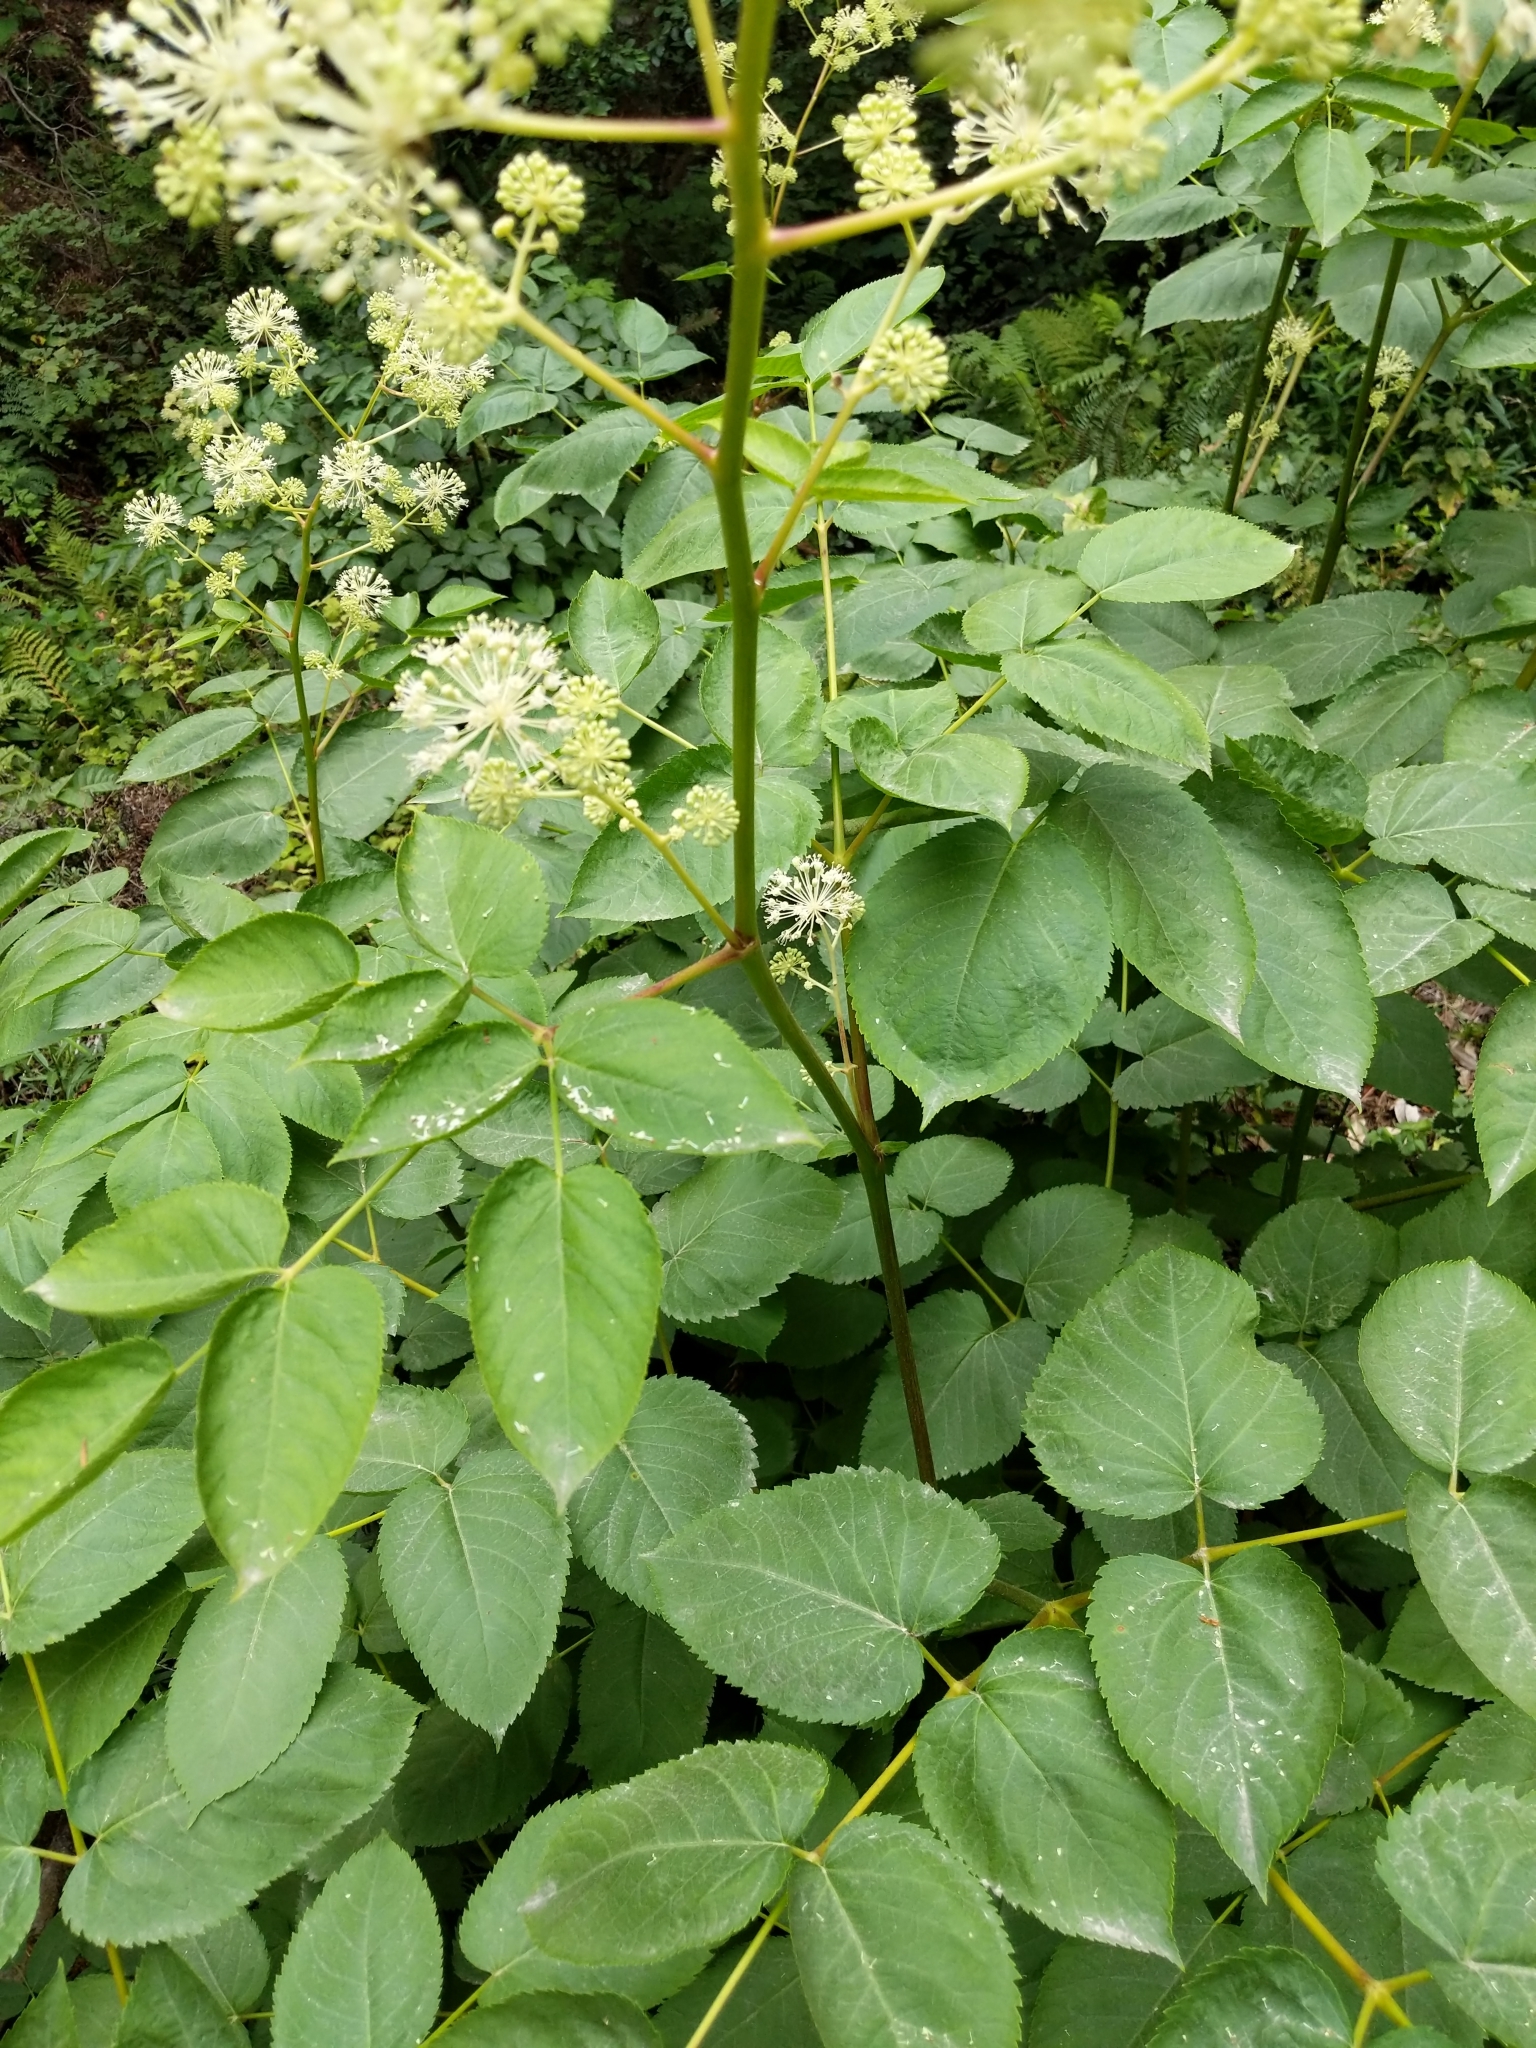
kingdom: Plantae
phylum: Tracheophyta
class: Magnoliopsida
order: Apiales
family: Araliaceae
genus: Aralia
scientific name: Aralia californica
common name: California-ginseng
